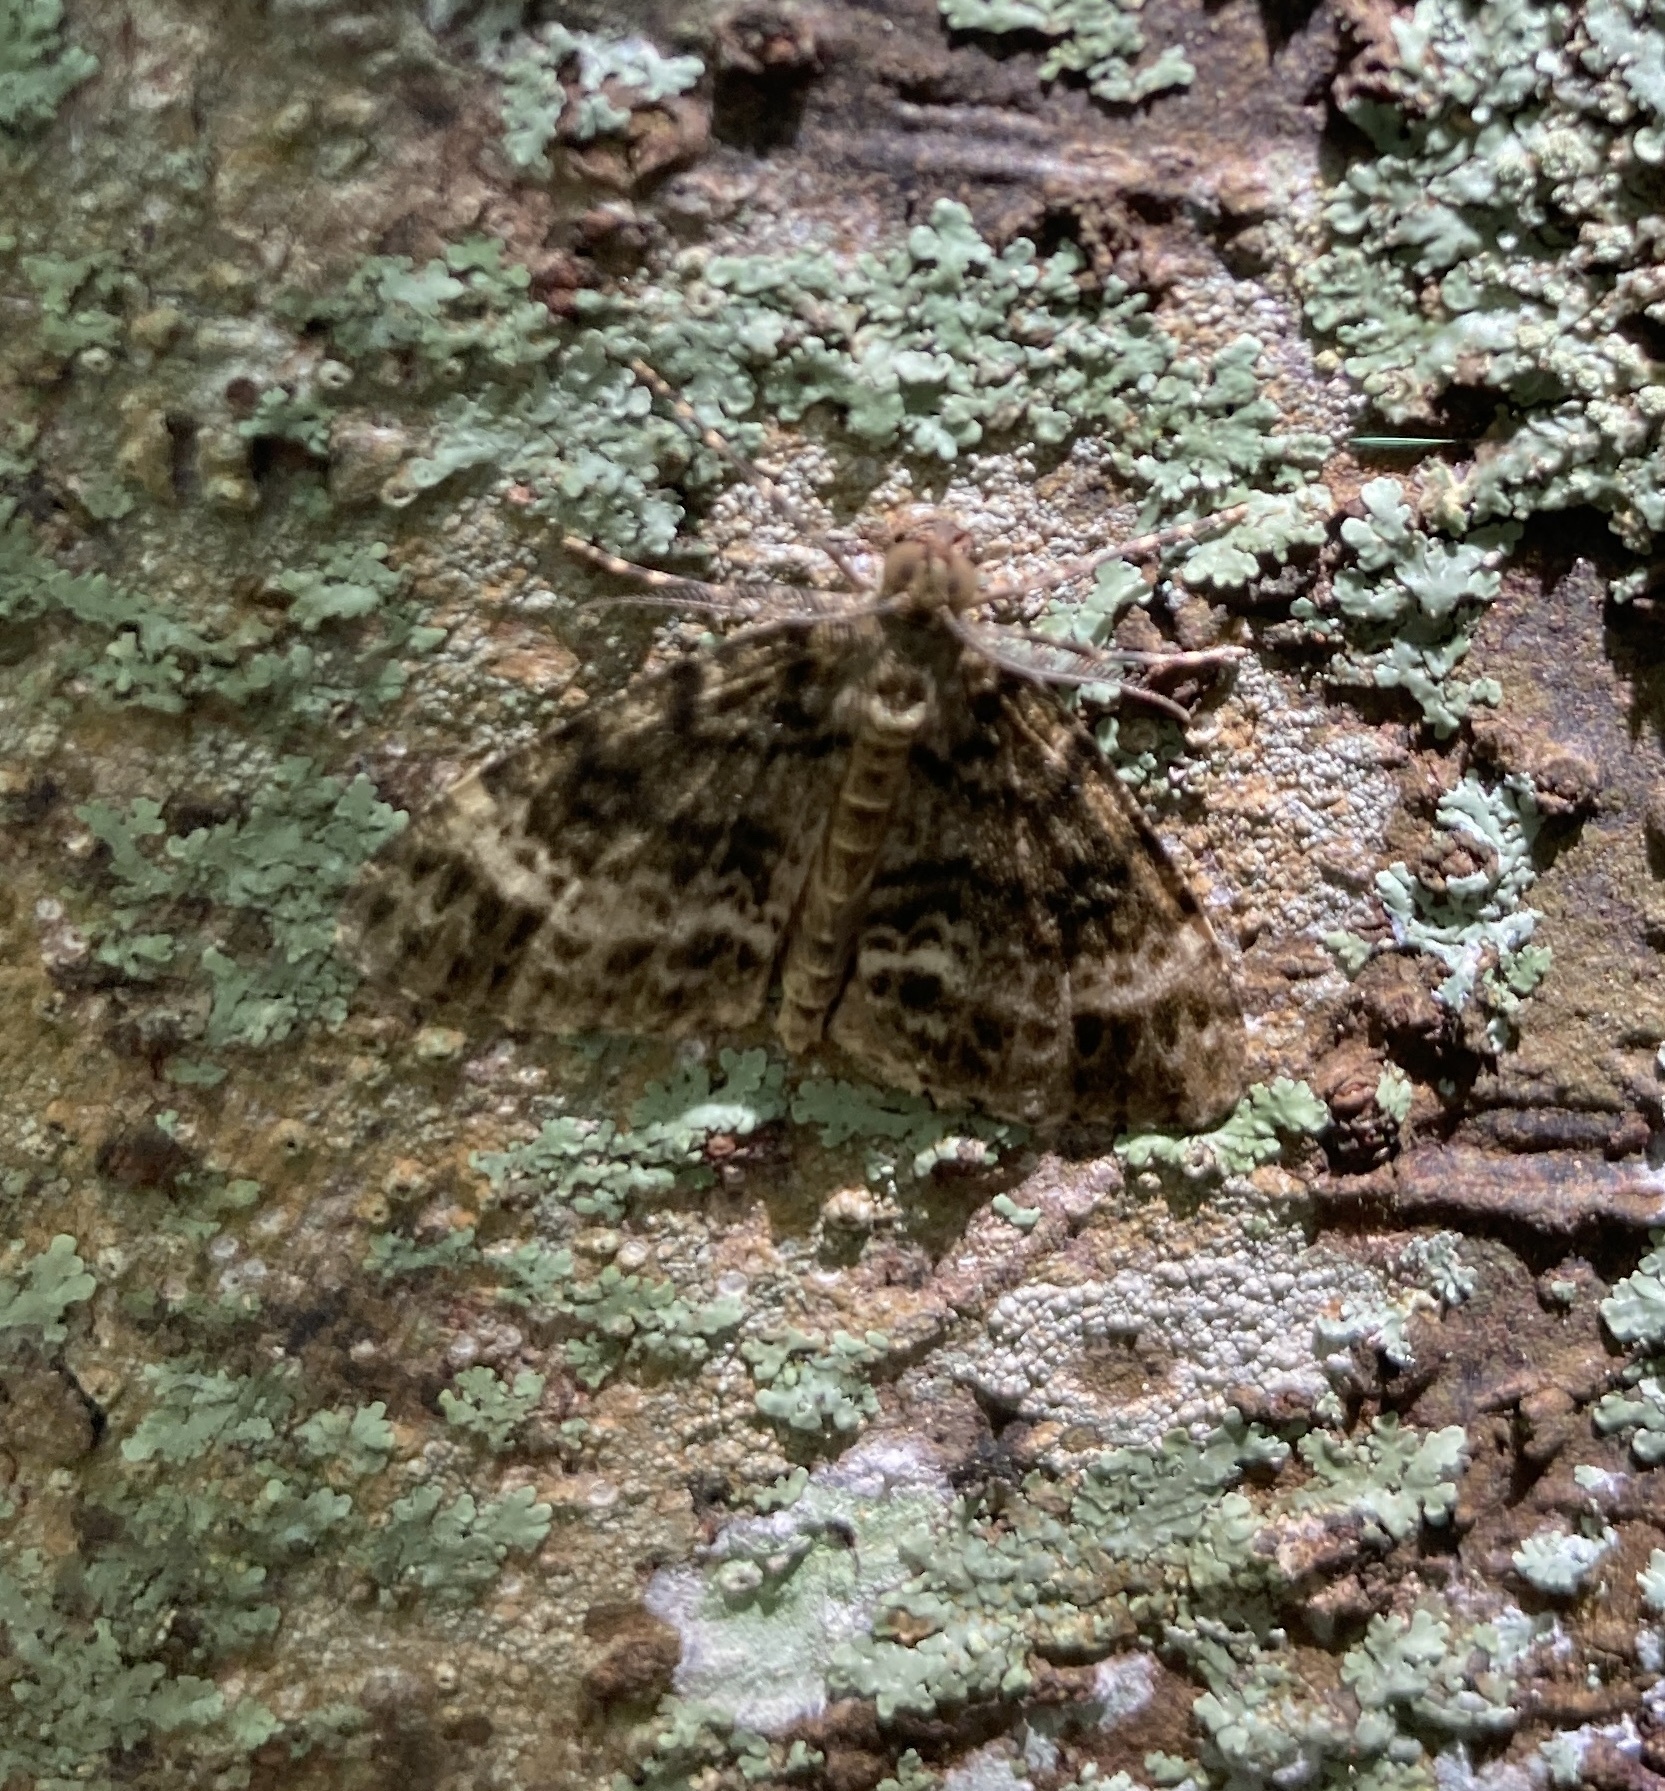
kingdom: Animalia
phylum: Arthropoda
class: Insecta
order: Lepidoptera
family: Geometridae
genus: Pseudocoremia
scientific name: Pseudocoremia indistincta
